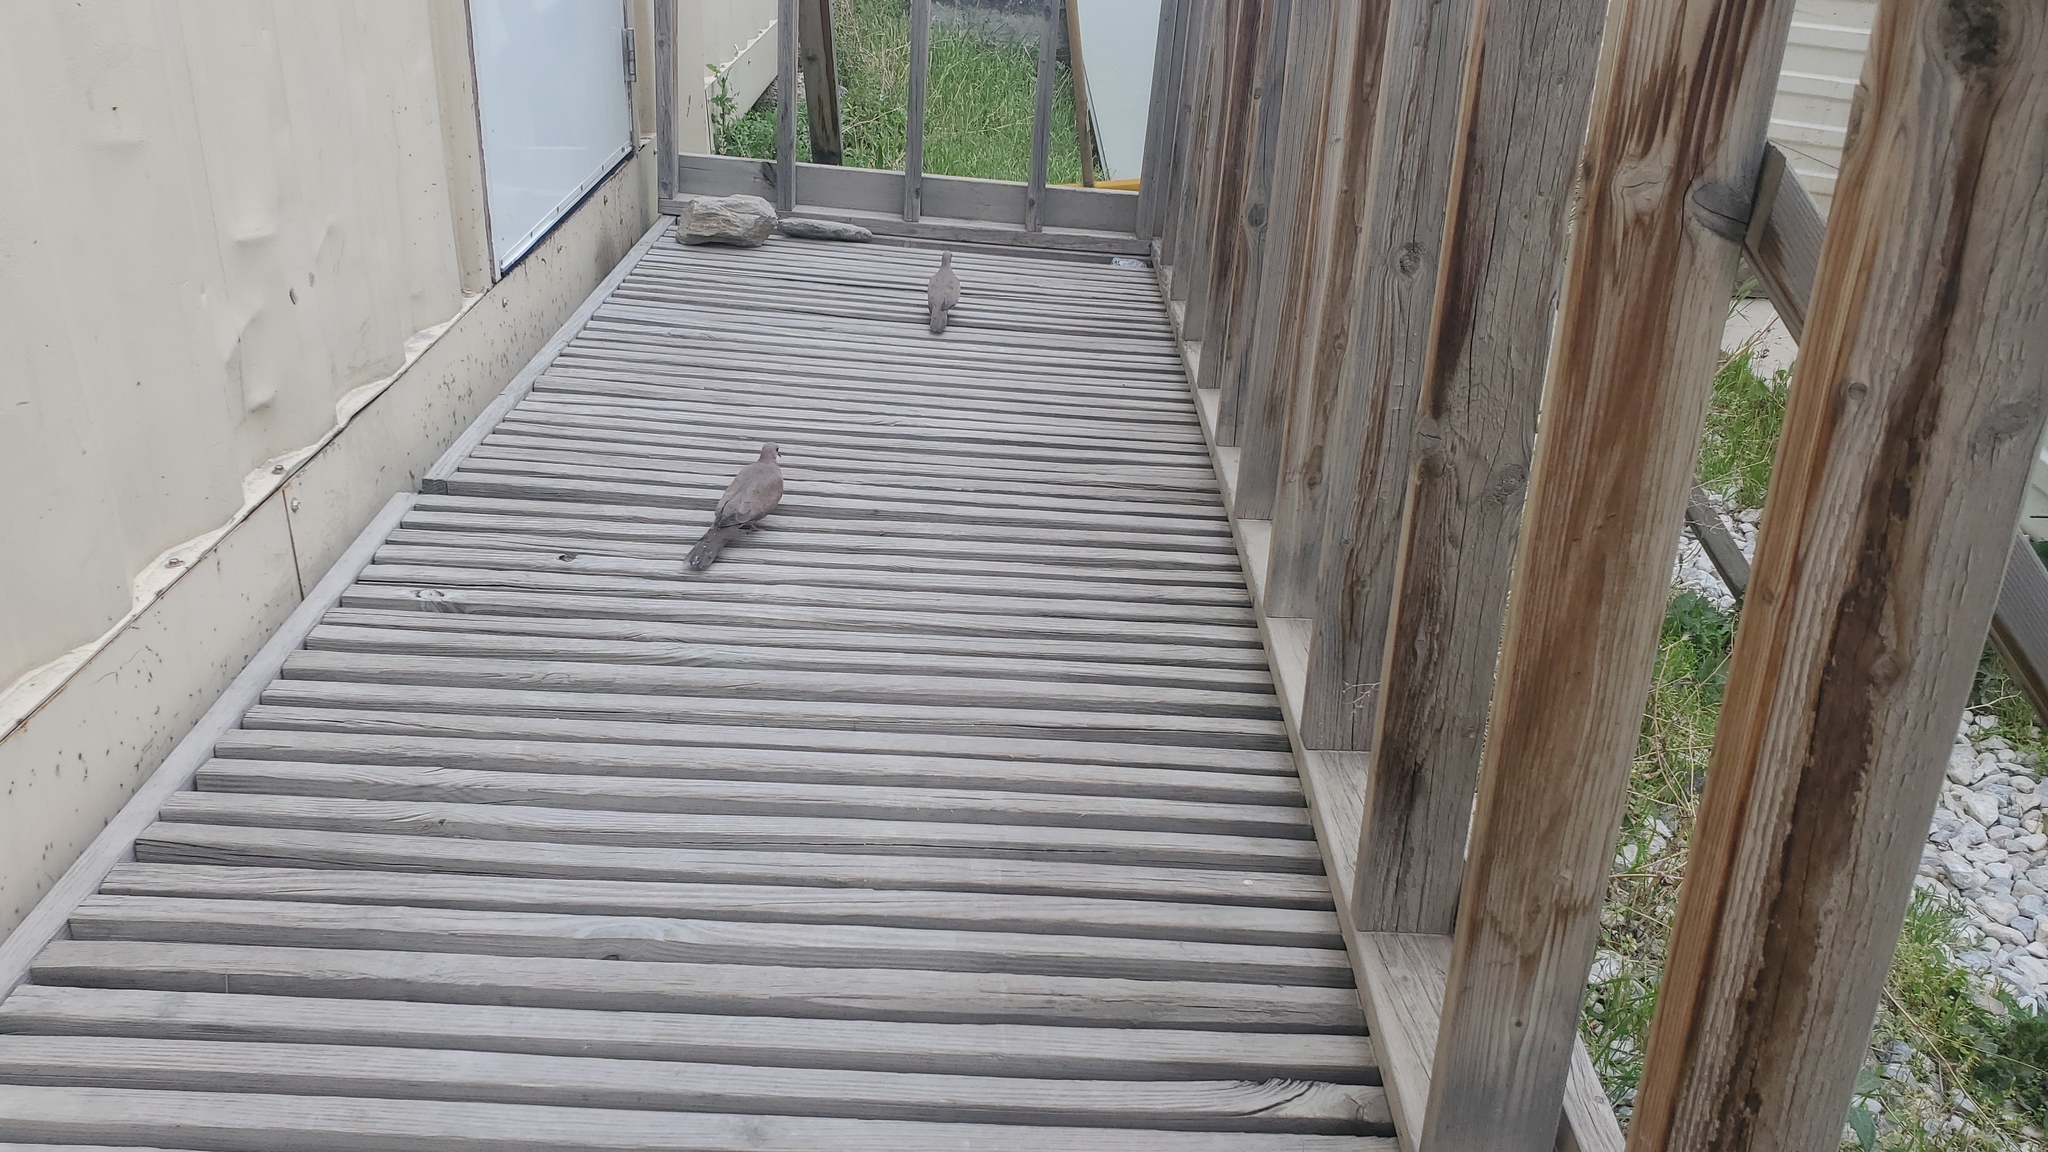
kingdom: Animalia
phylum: Chordata
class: Aves
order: Columbiformes
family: Columbidae
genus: Spilopelia
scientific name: Spilopelia senegalensis
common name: Laughing dove
